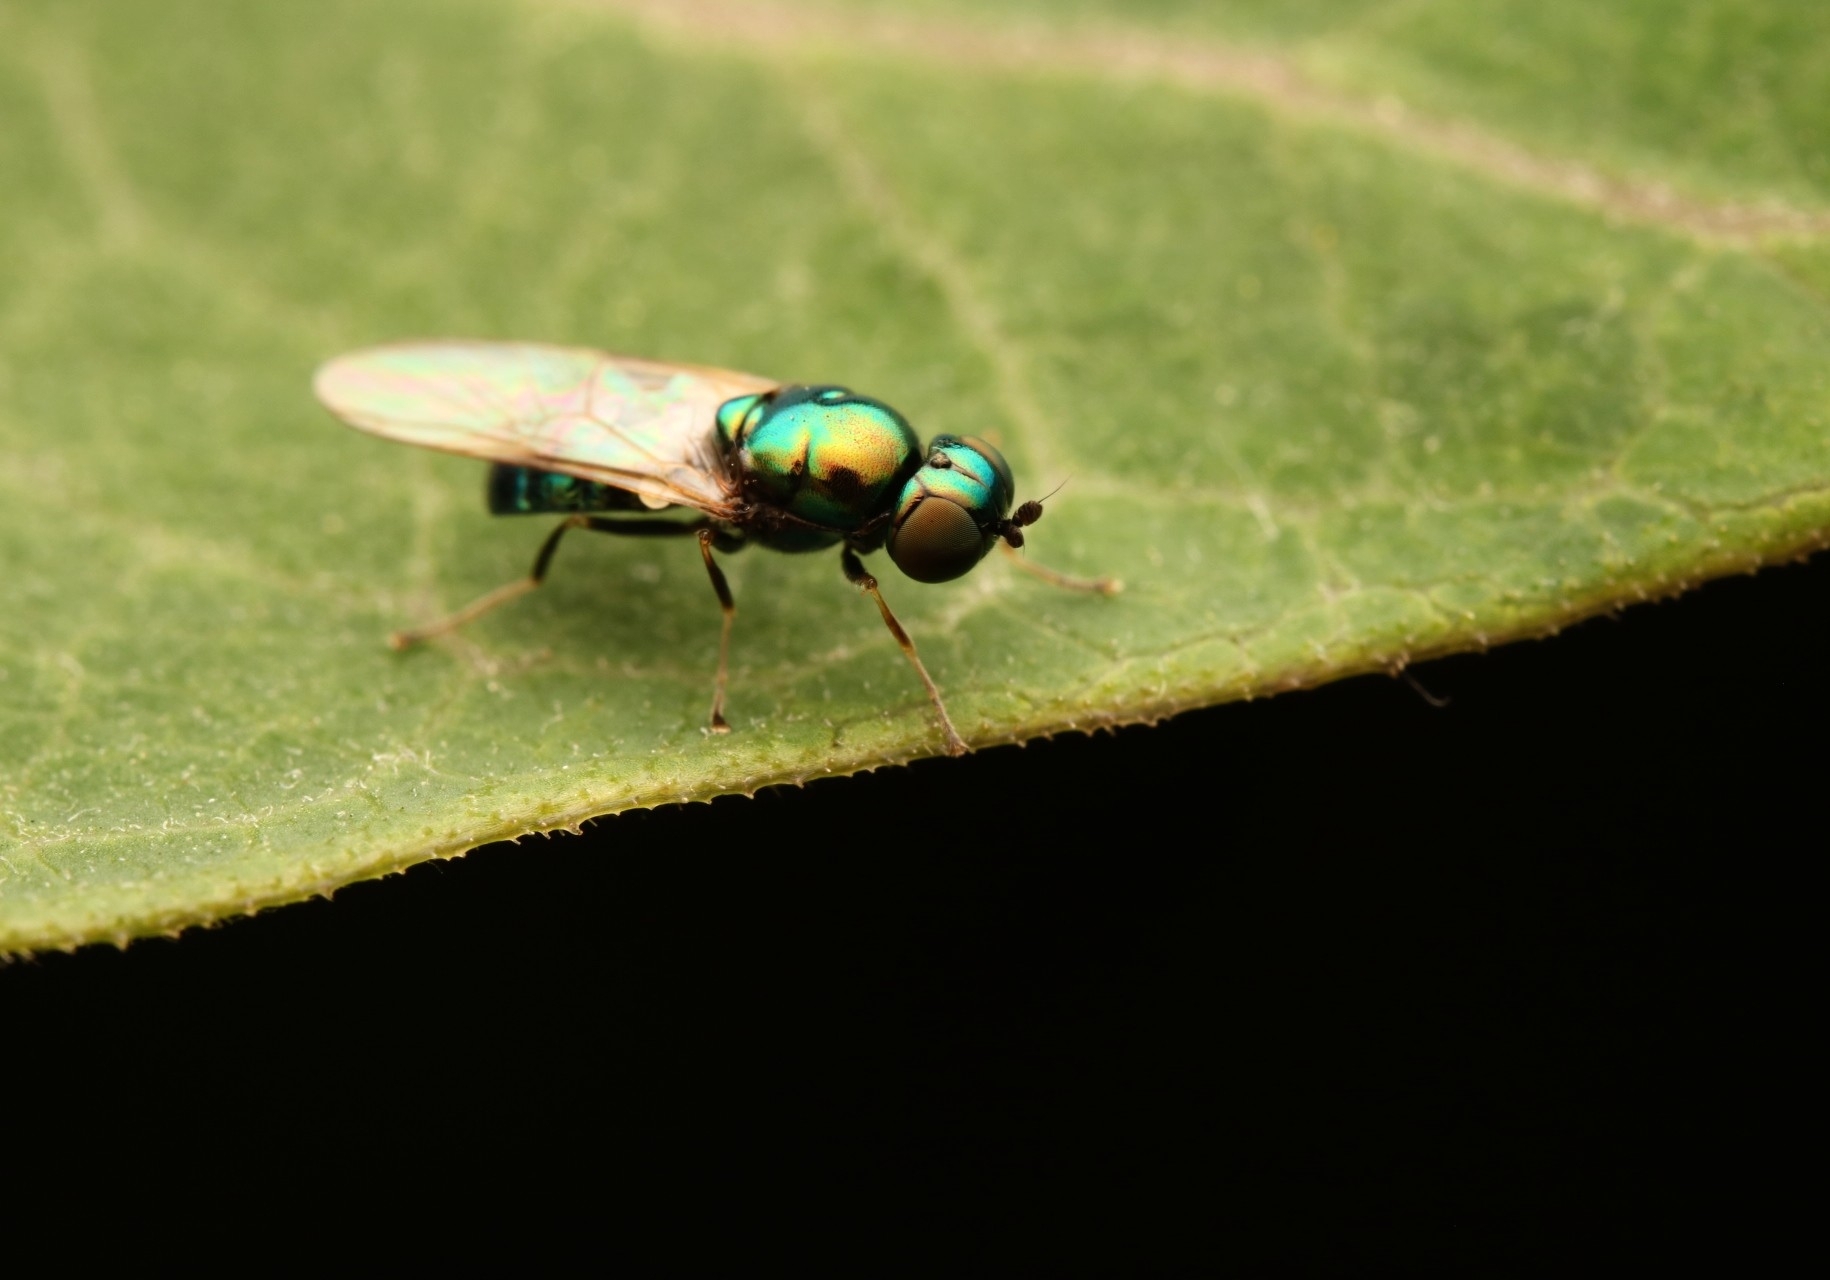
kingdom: Animalia
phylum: Arthropoda
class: Insecta
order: Diptera
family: Stratiomyidae
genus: Microchrysa
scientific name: Microchrysa polita
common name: Black-horned gem
